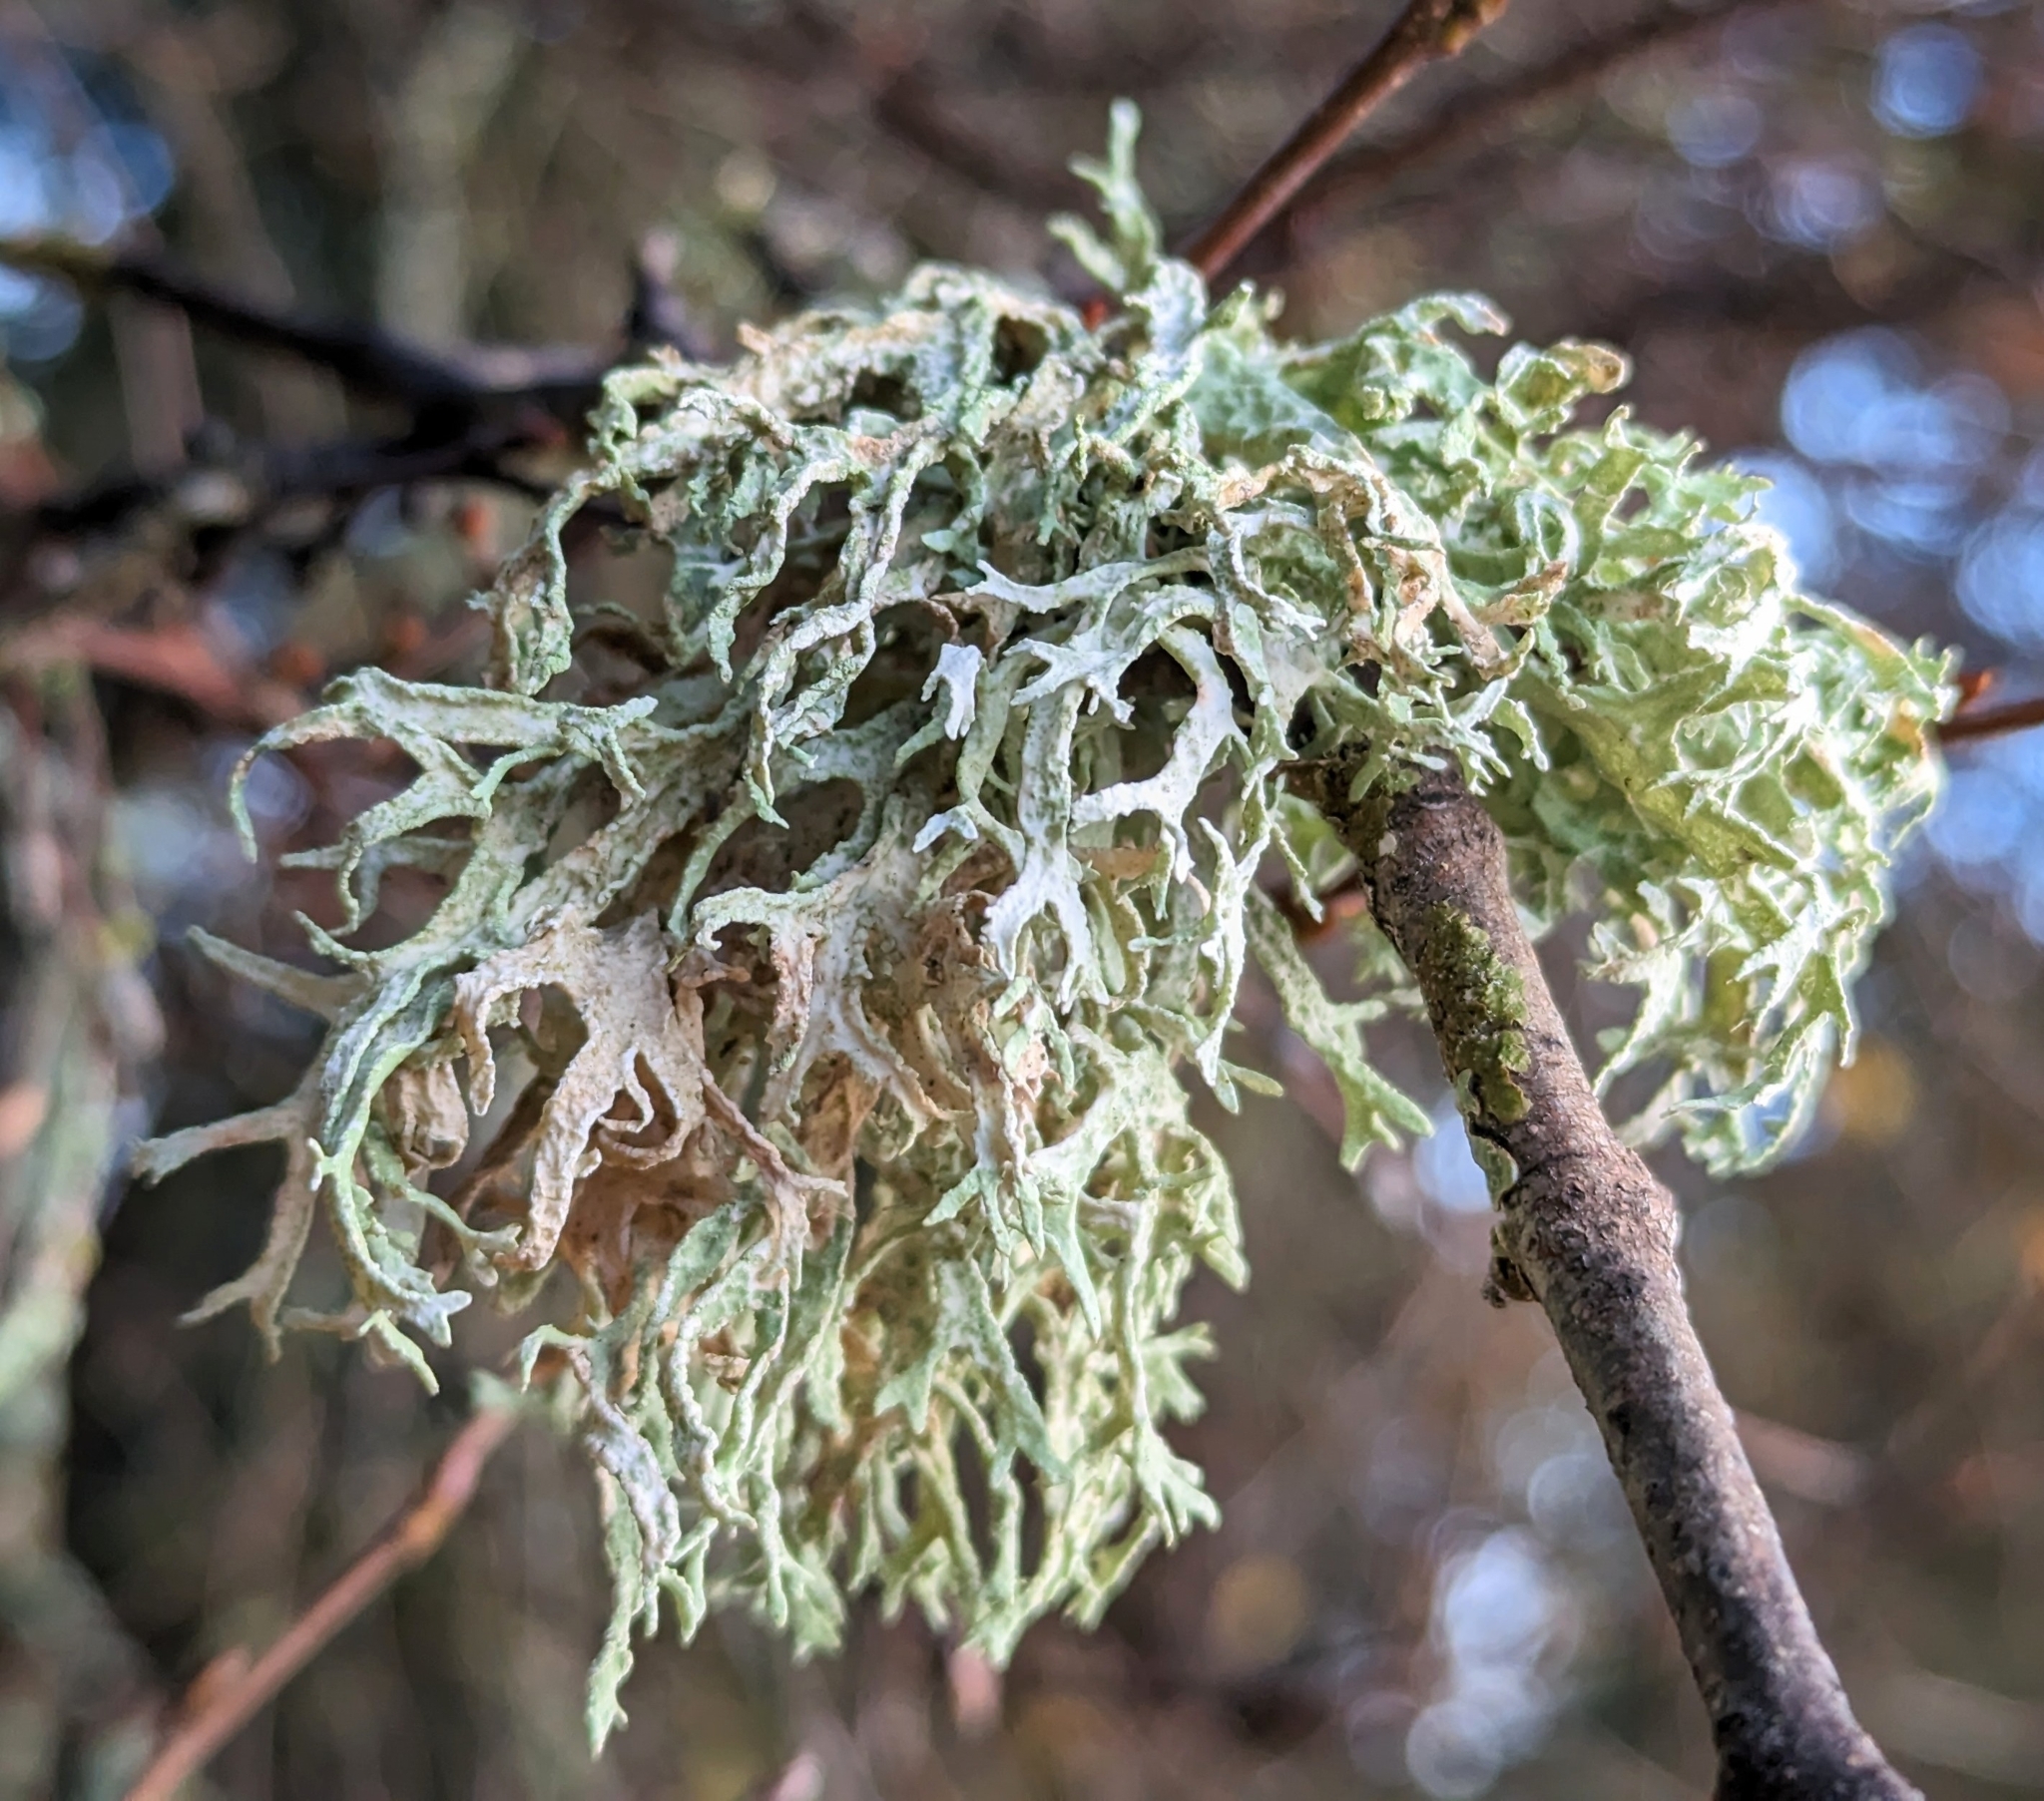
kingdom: Fungi
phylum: Ascomycota
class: Lecanoromycetes
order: Lecanorales
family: Parmeliaceae
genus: Evernia
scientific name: Evernia prunastri
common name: Oak moss
